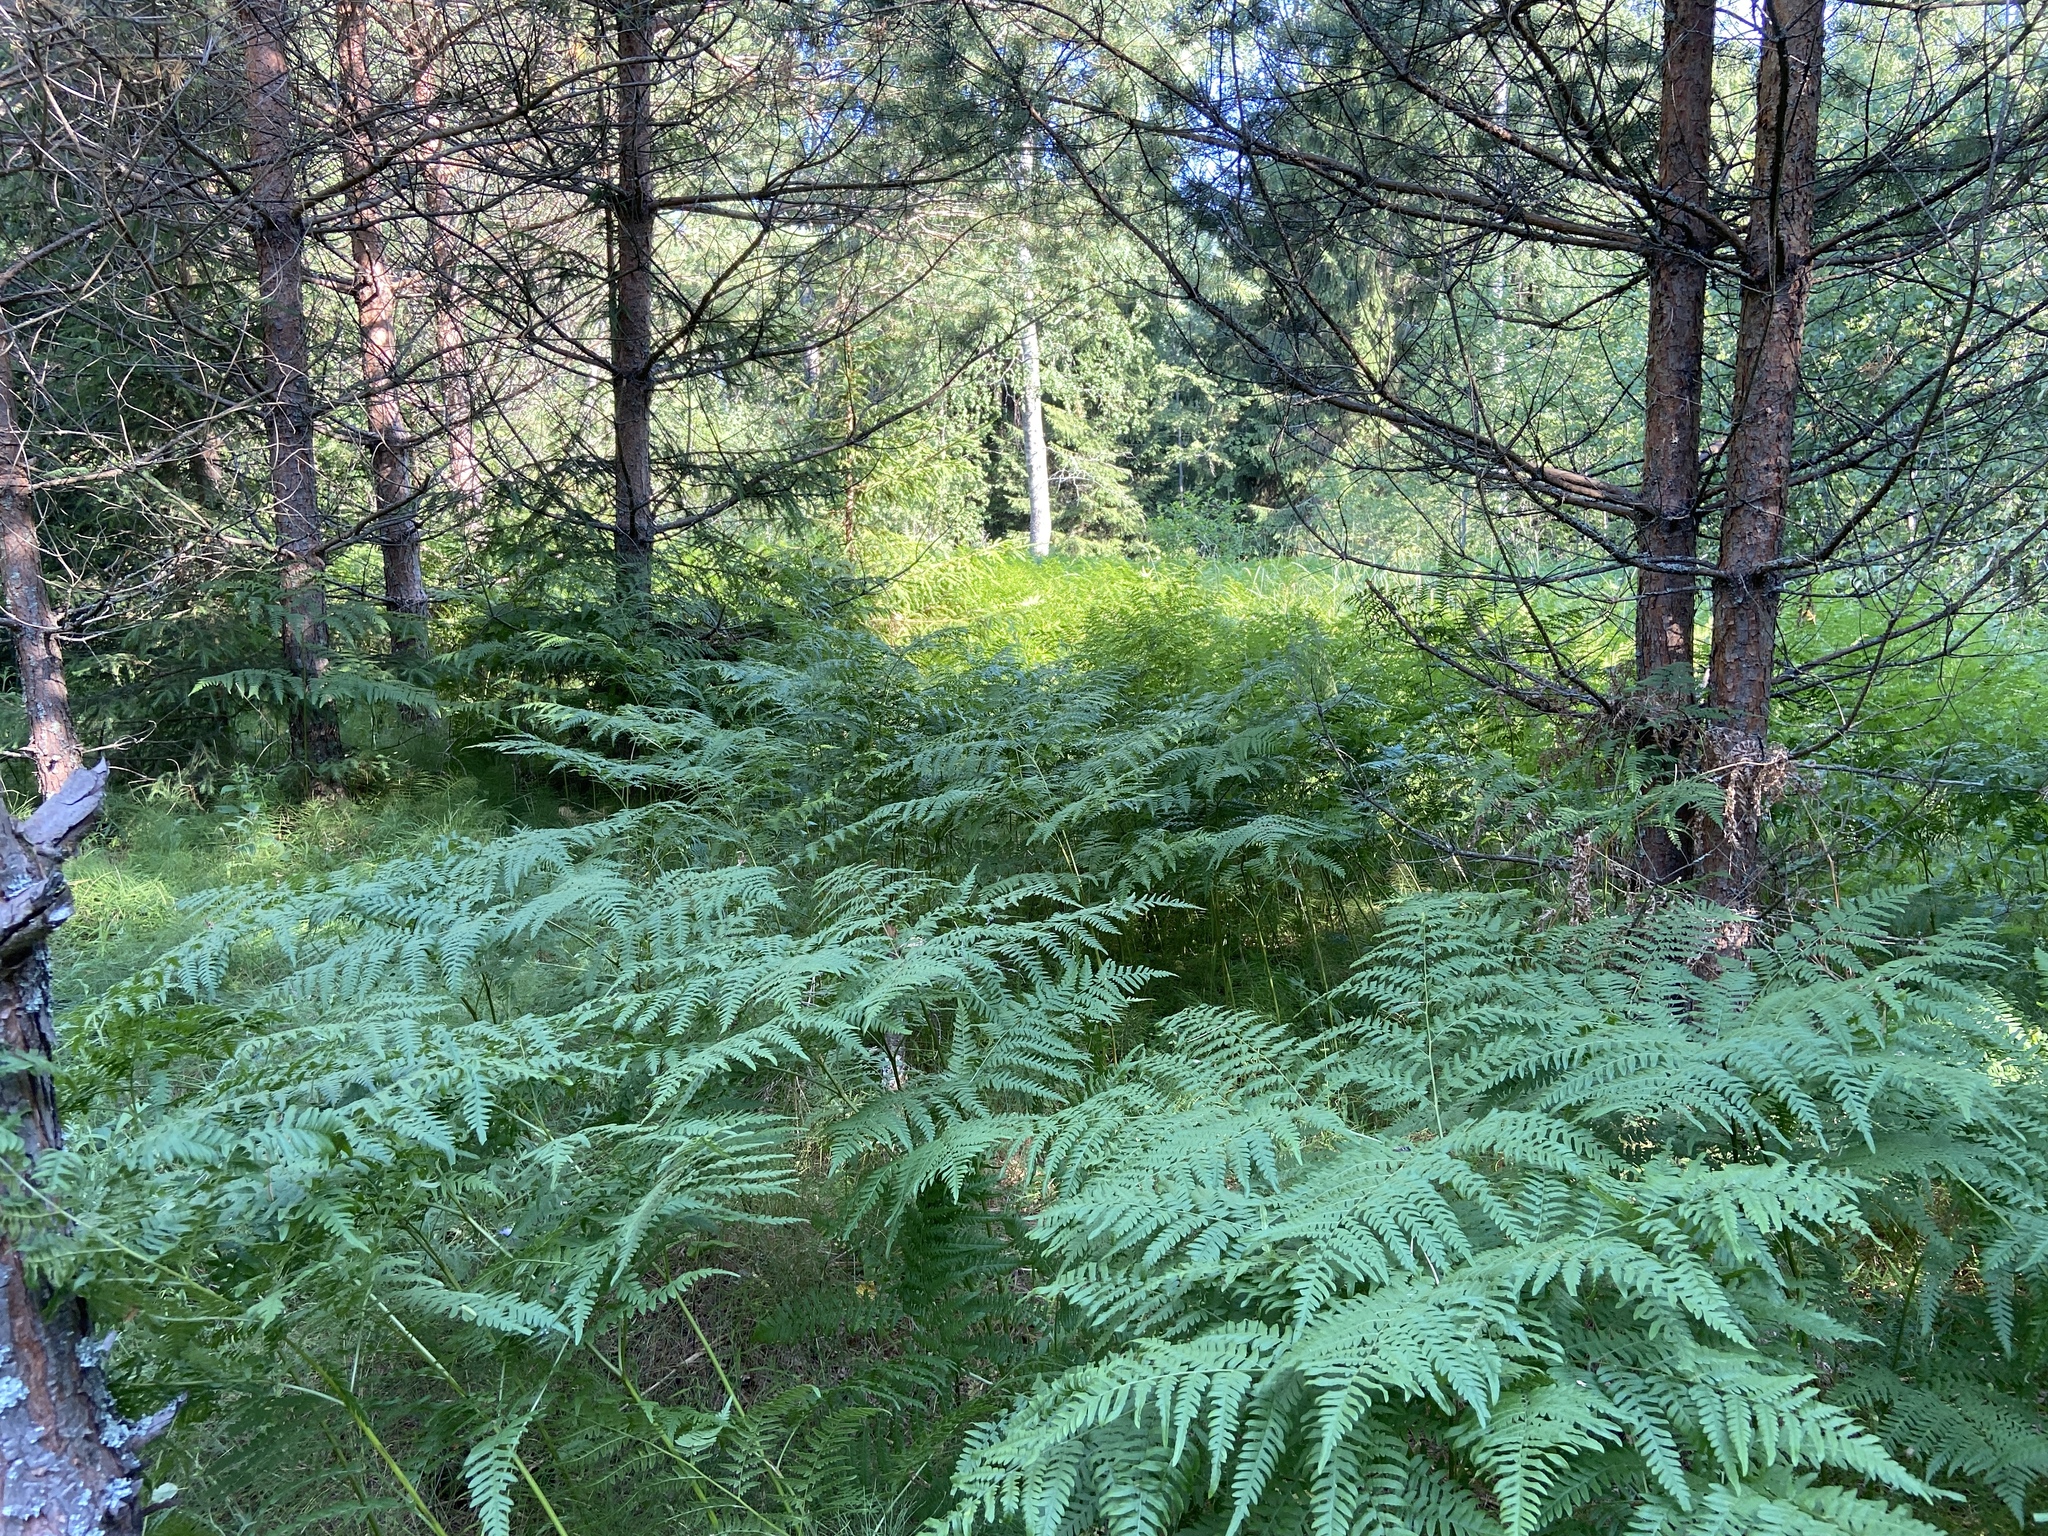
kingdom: Plantae
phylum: Tracheophyta
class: Polypodiopsida
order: Polypodiales
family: Dennstaedtiaceae
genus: Pteridium
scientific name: Pteridium aquilinum
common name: Bracken
